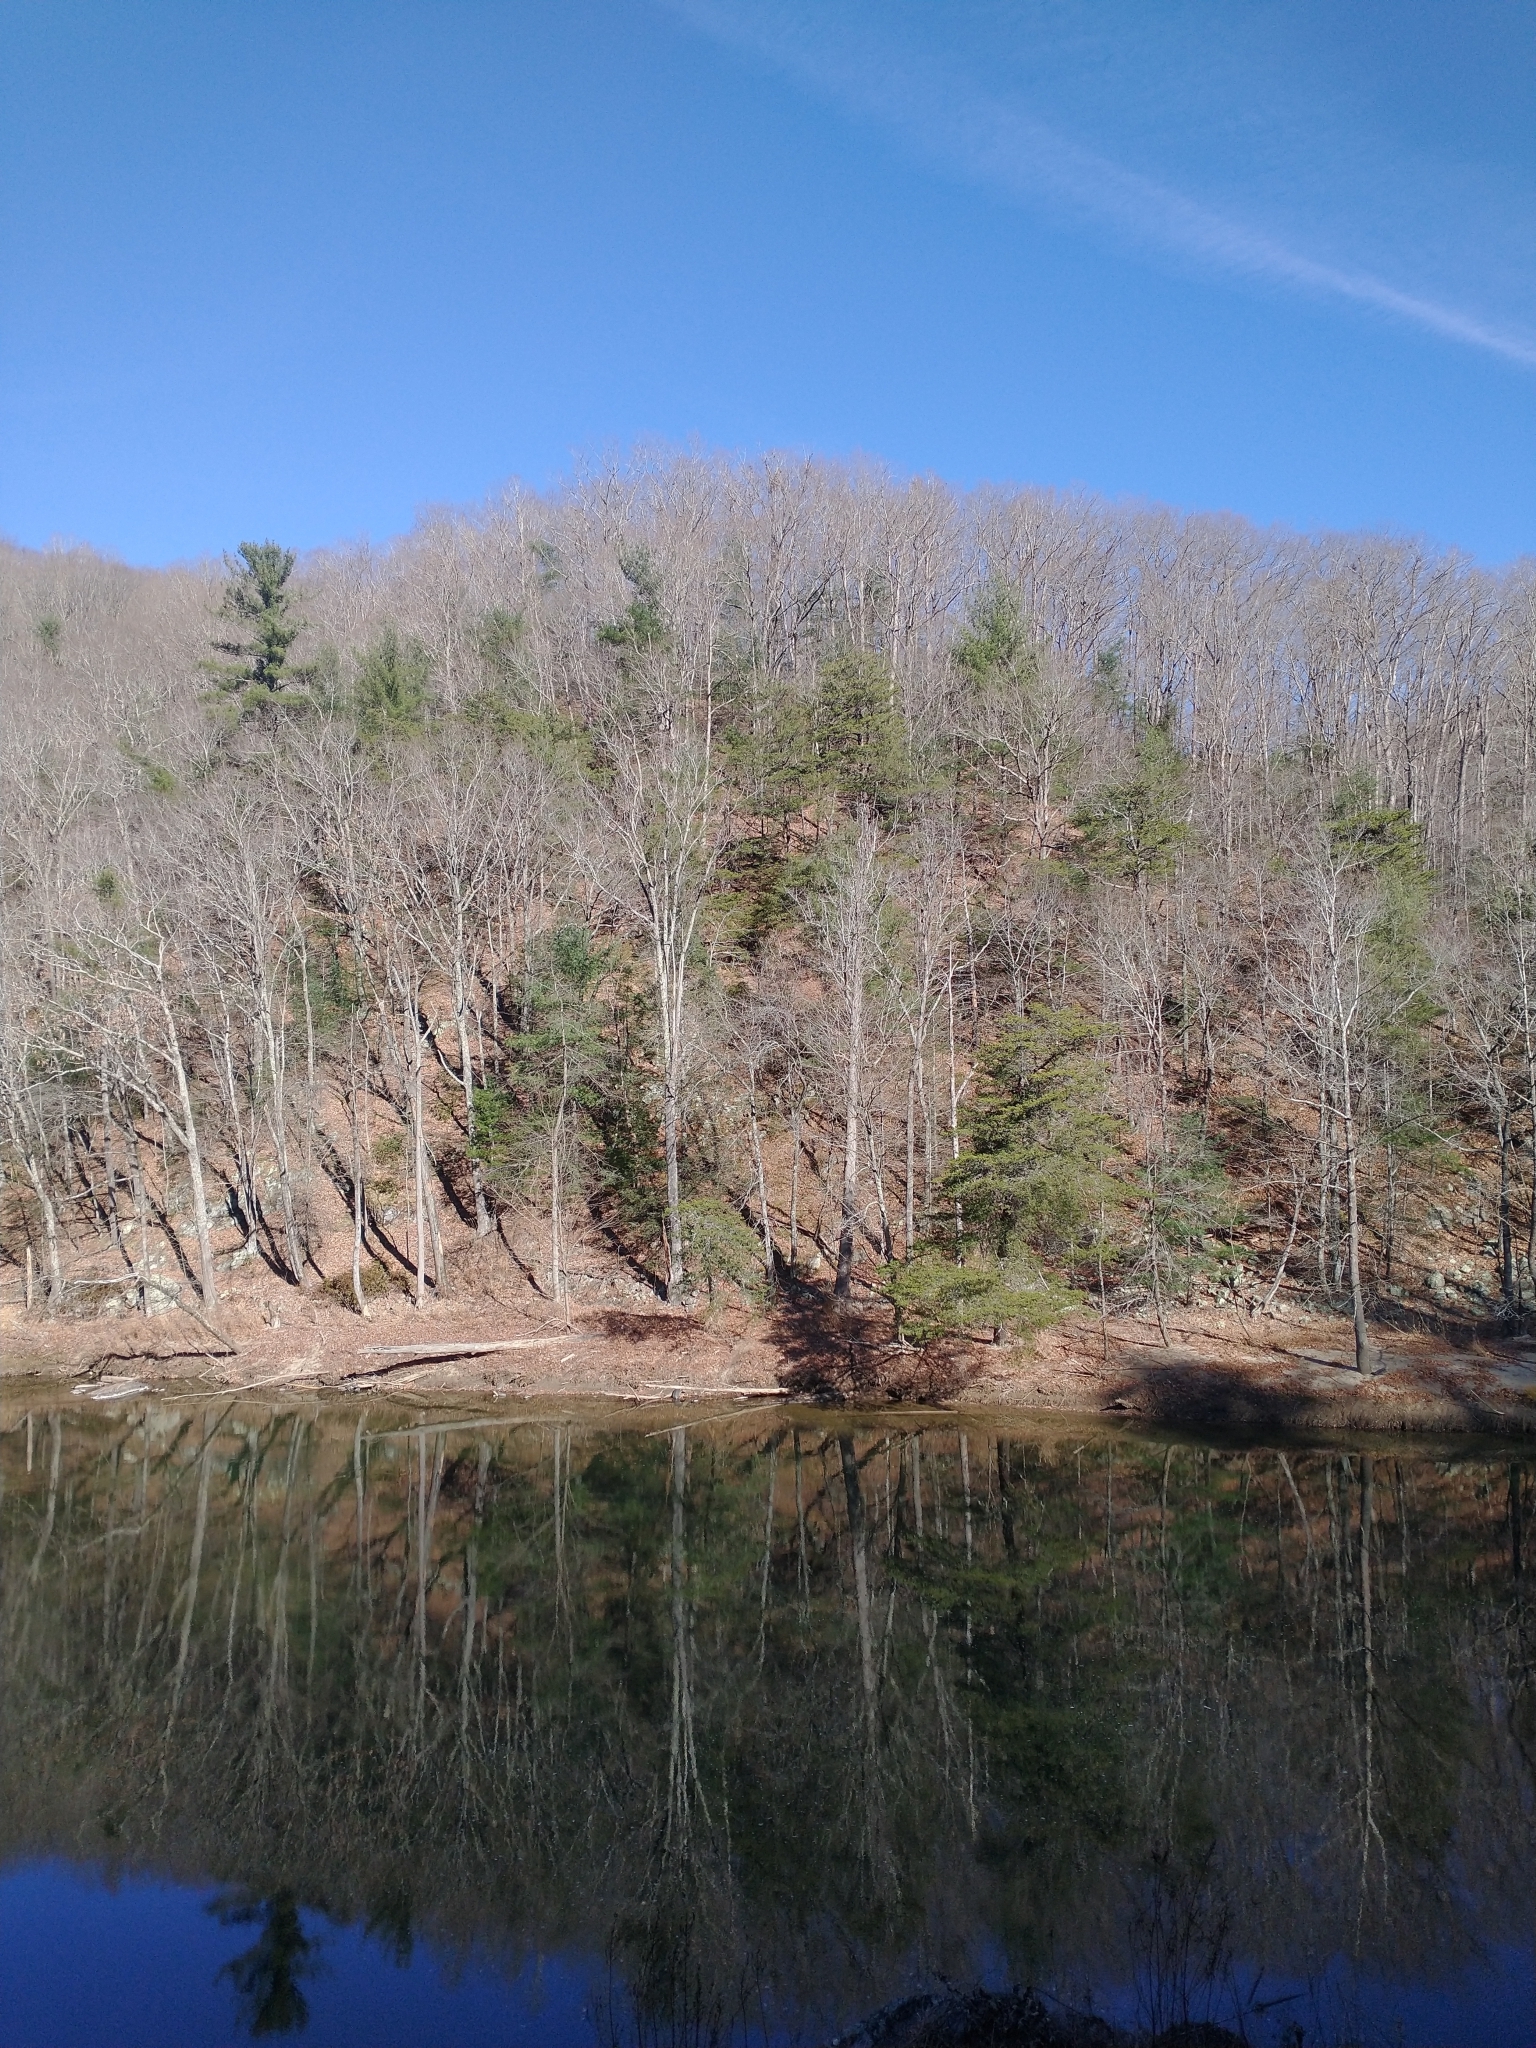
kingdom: Plantae
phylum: Tracheophyta
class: Pinopsida
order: Pinales
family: Pinaceae
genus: Pinus
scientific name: Pinus strobus
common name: Weymouth pine
